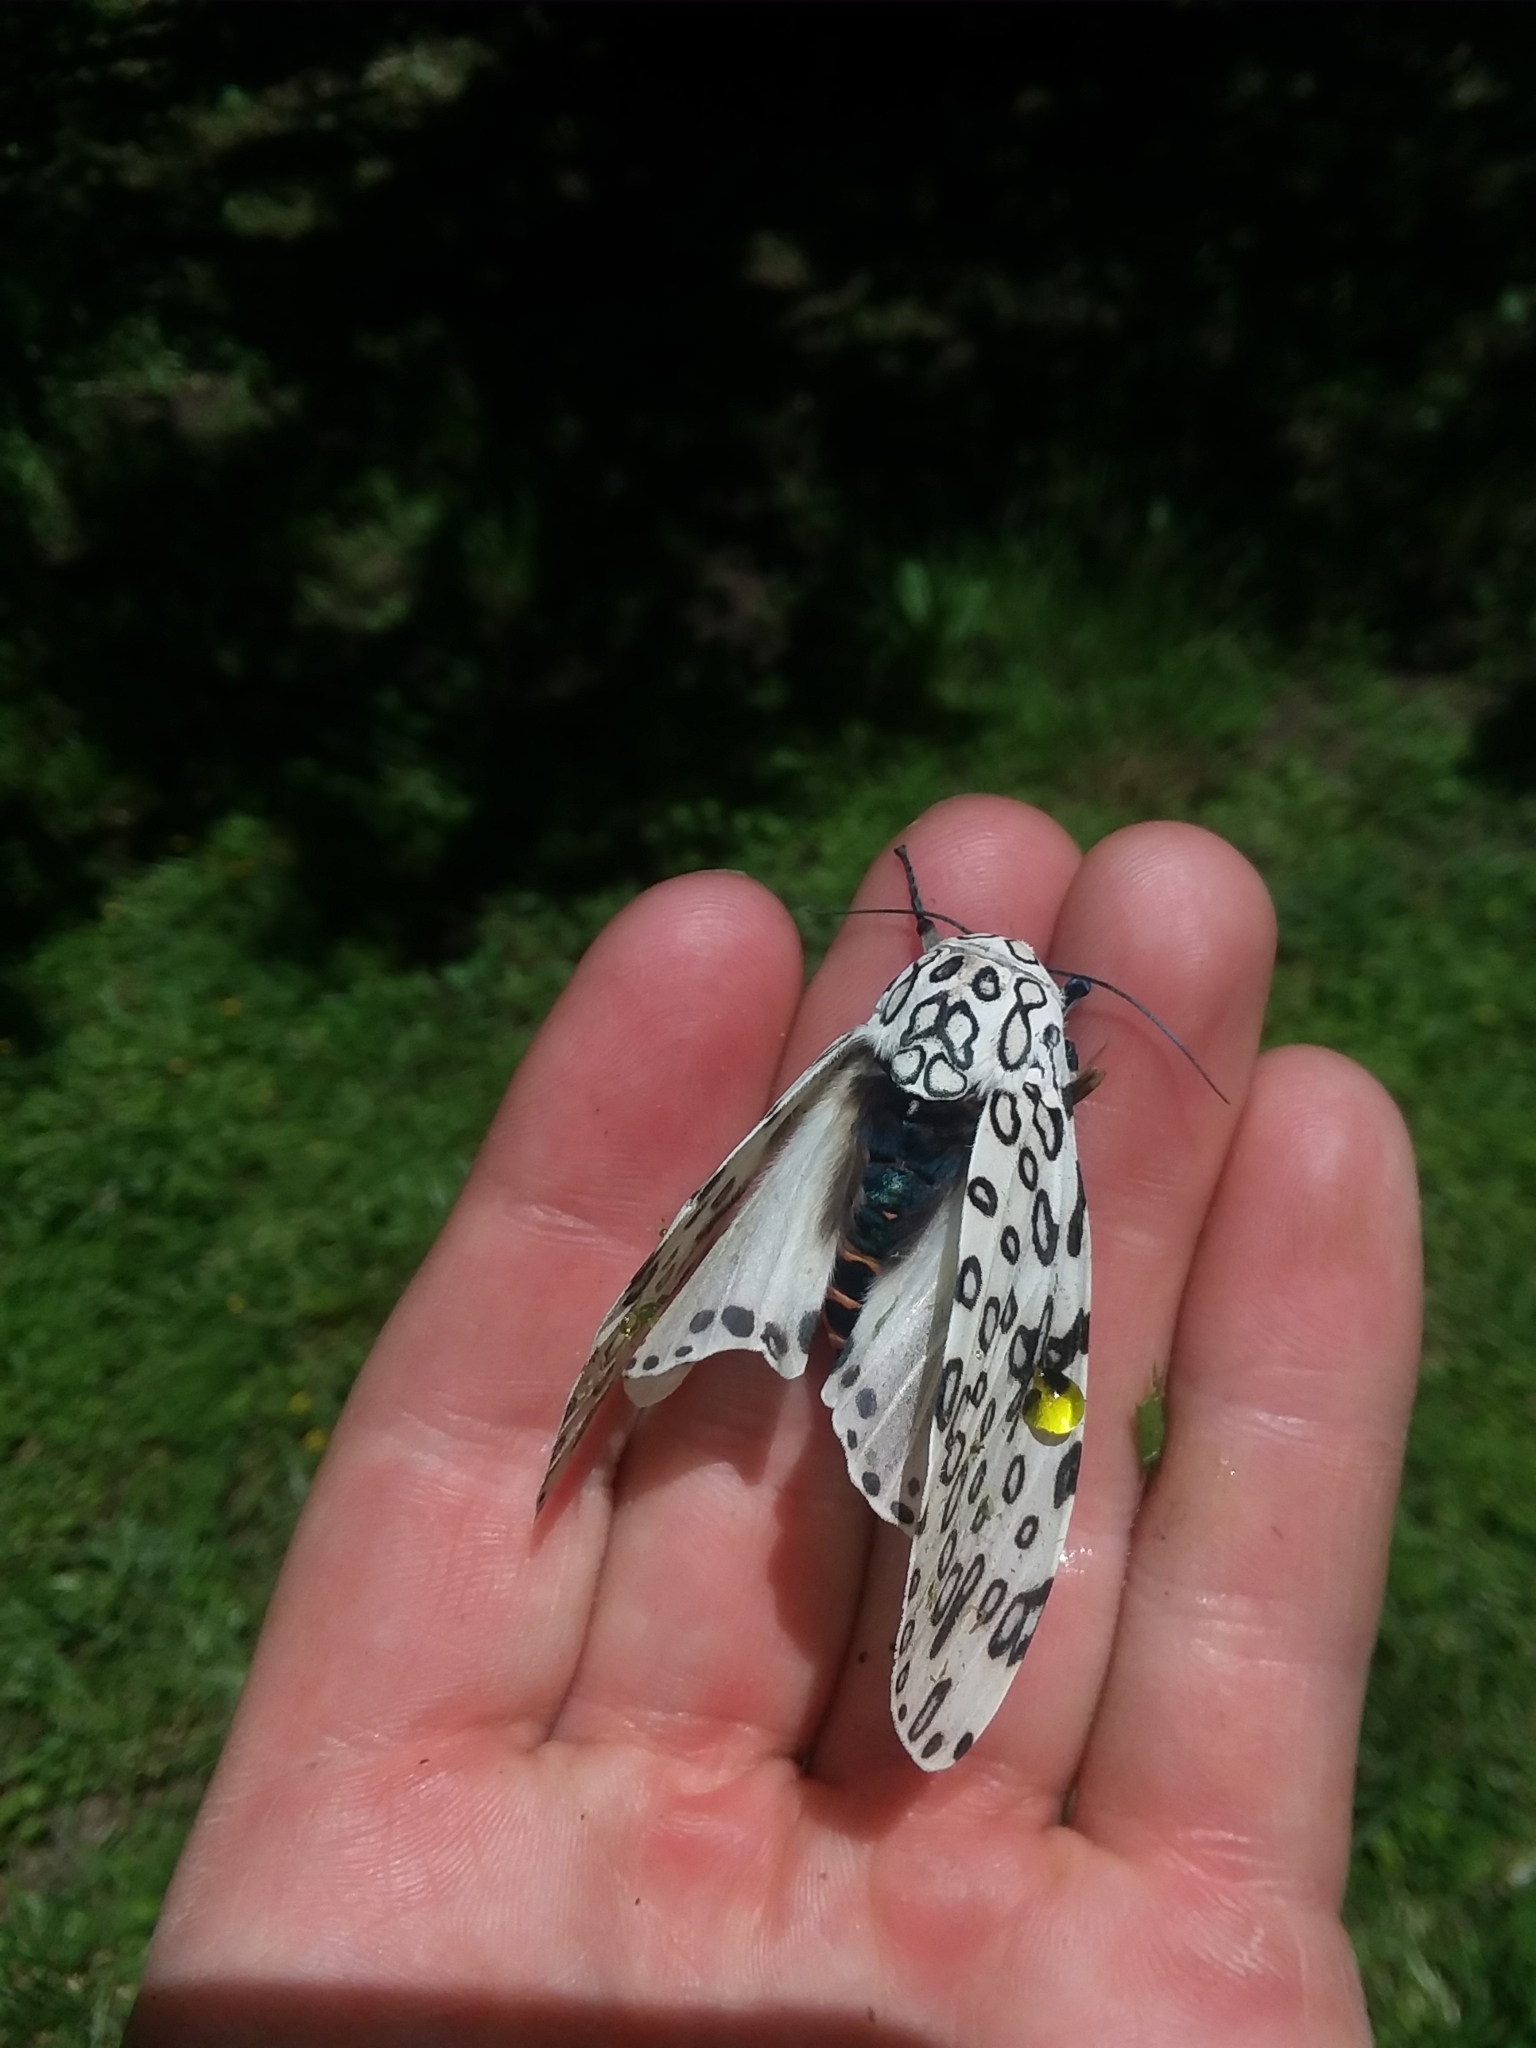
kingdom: Animalia
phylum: Arthropoda
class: Insecta
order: Lepidoptera
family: Erebidae
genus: Hypercompe
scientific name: Hypercompe scribonia
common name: Giant leopard moth
